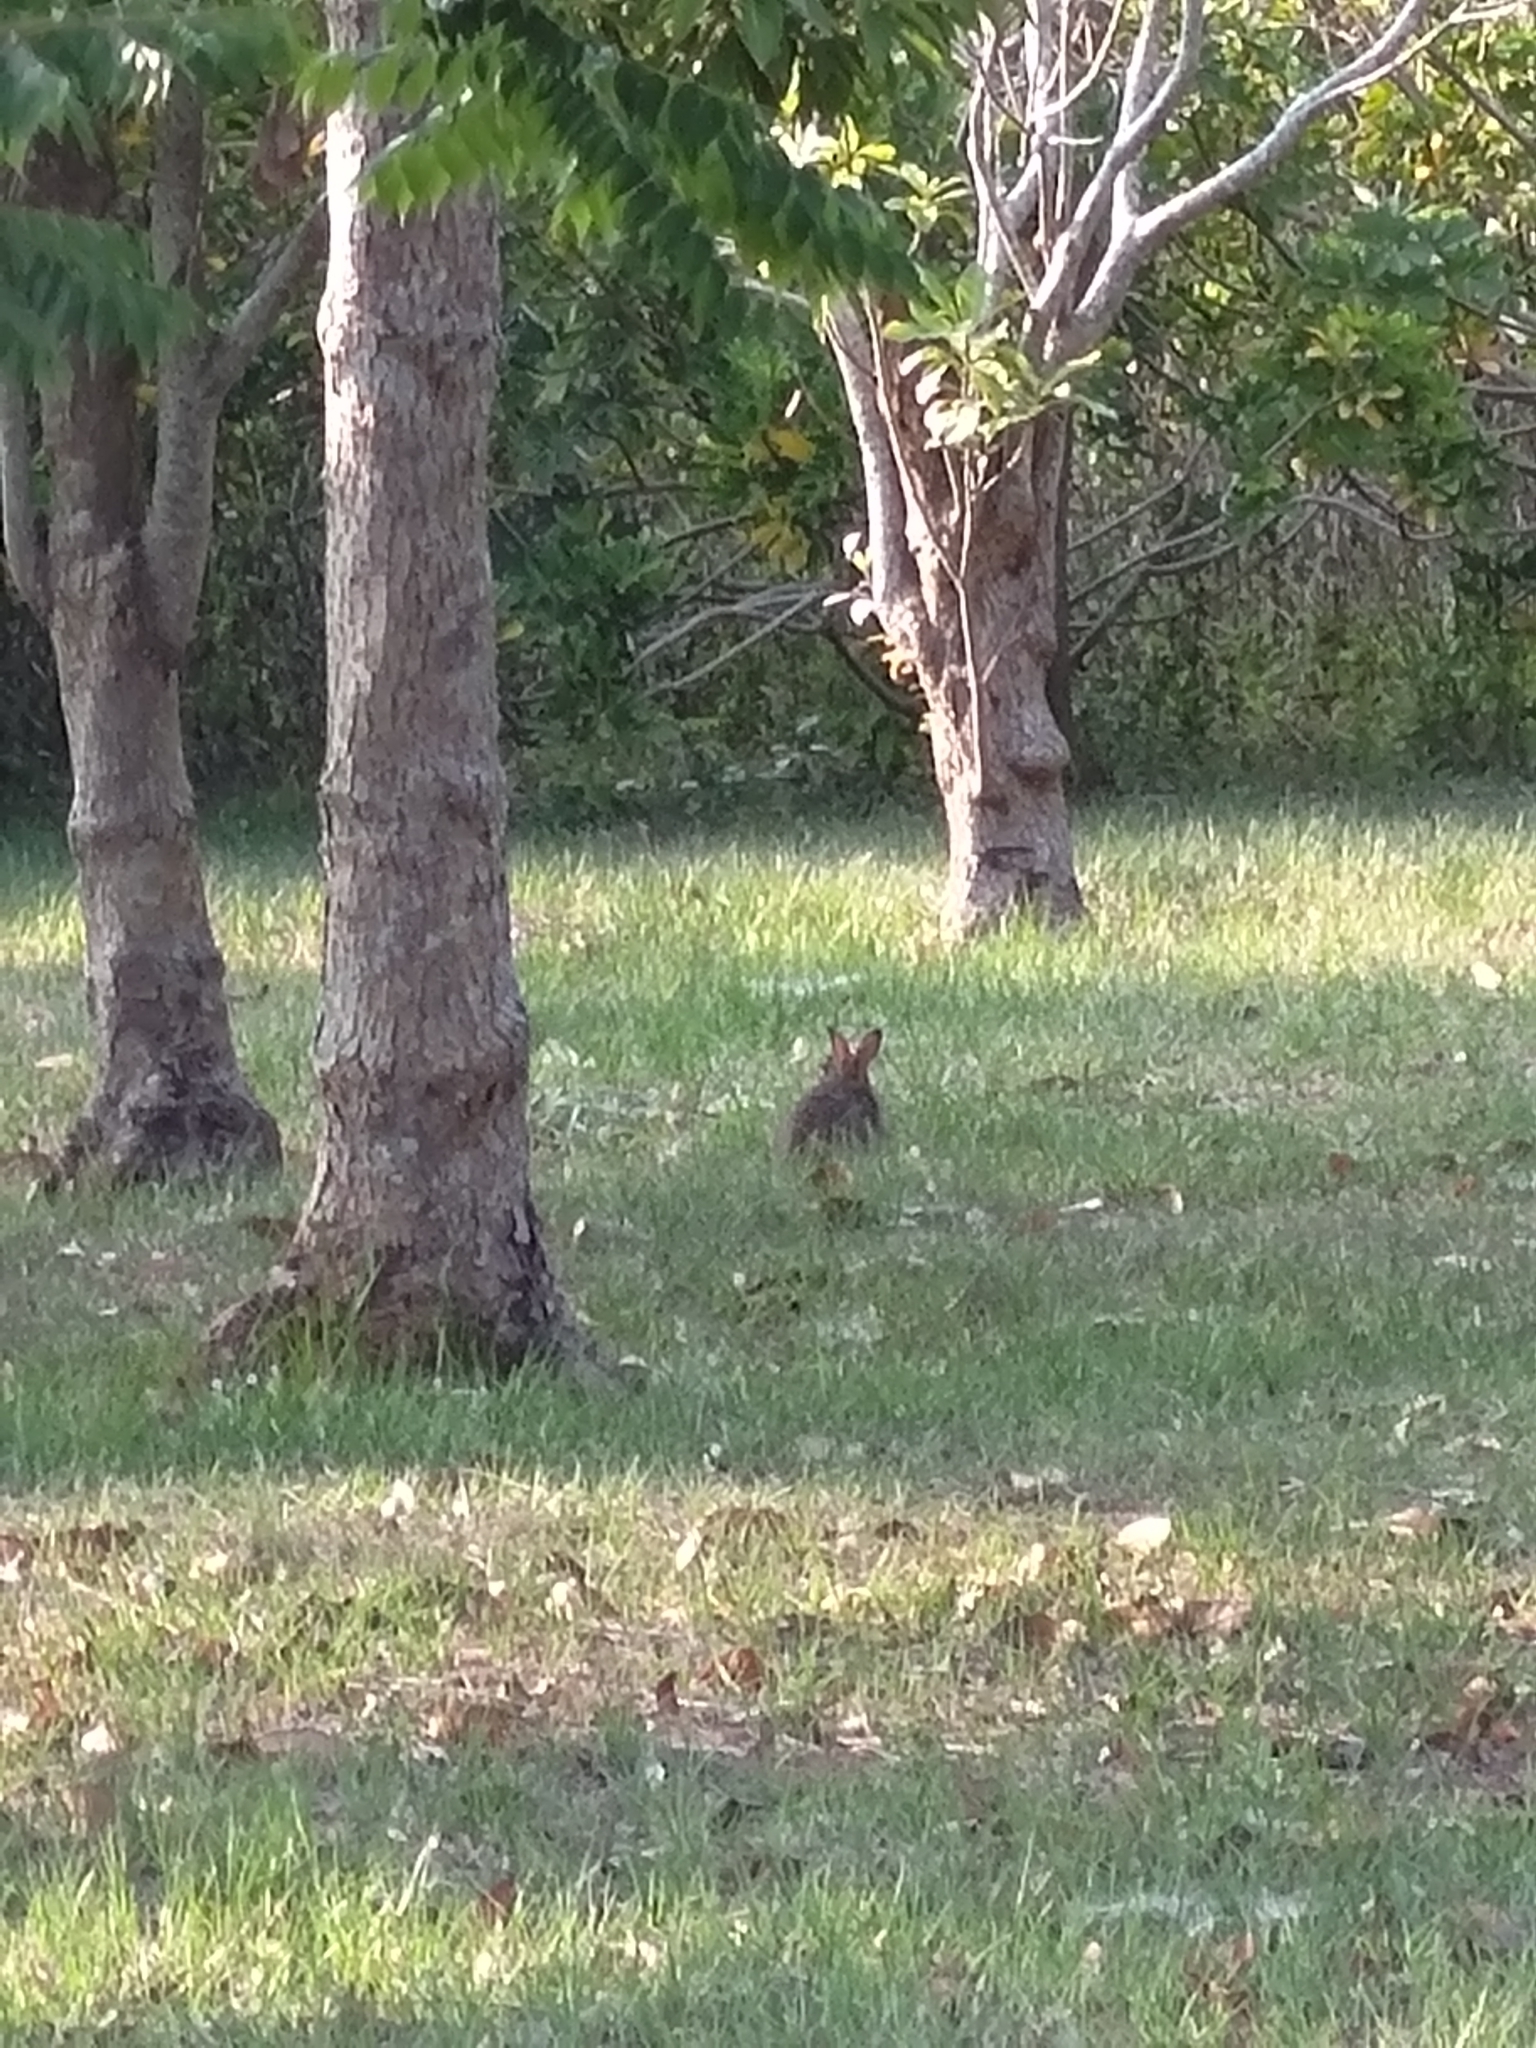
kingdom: Animalia
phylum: Chordata
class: Mammalia
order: Lagomorpha
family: Leporidae
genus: Lepus
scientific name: Lepus sinensis
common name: Chinese hare
